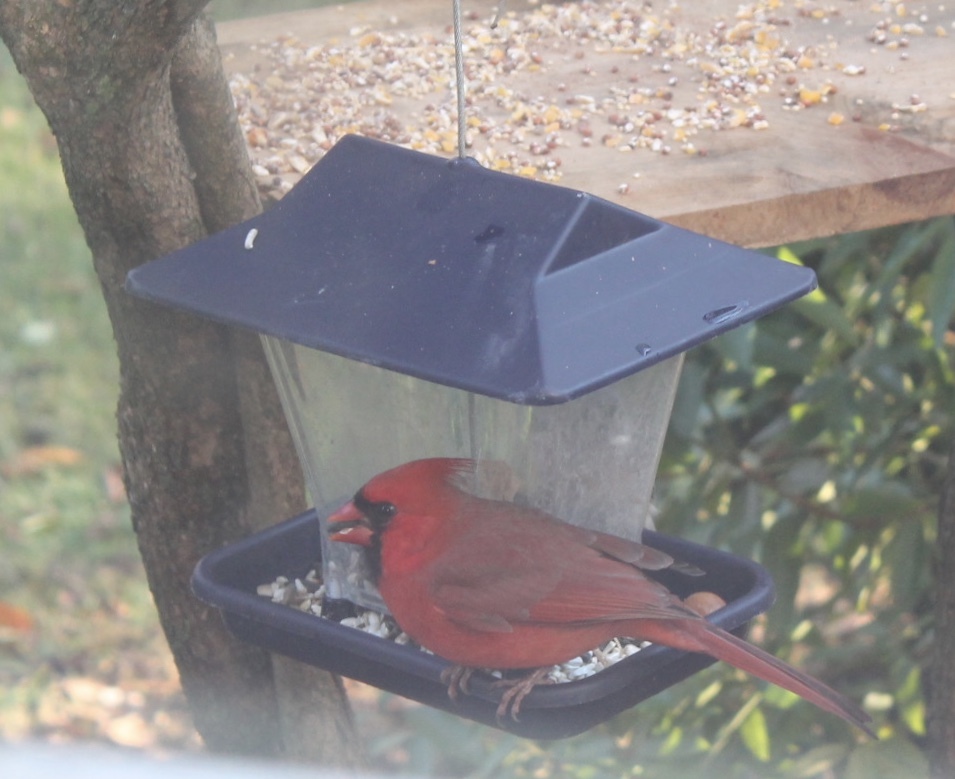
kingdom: Animalia
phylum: Chordata
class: Aves
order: Passeriformes
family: Cardinalidae
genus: Cardinalis
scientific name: Cardinalis cardinalis
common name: Northern cardinal
